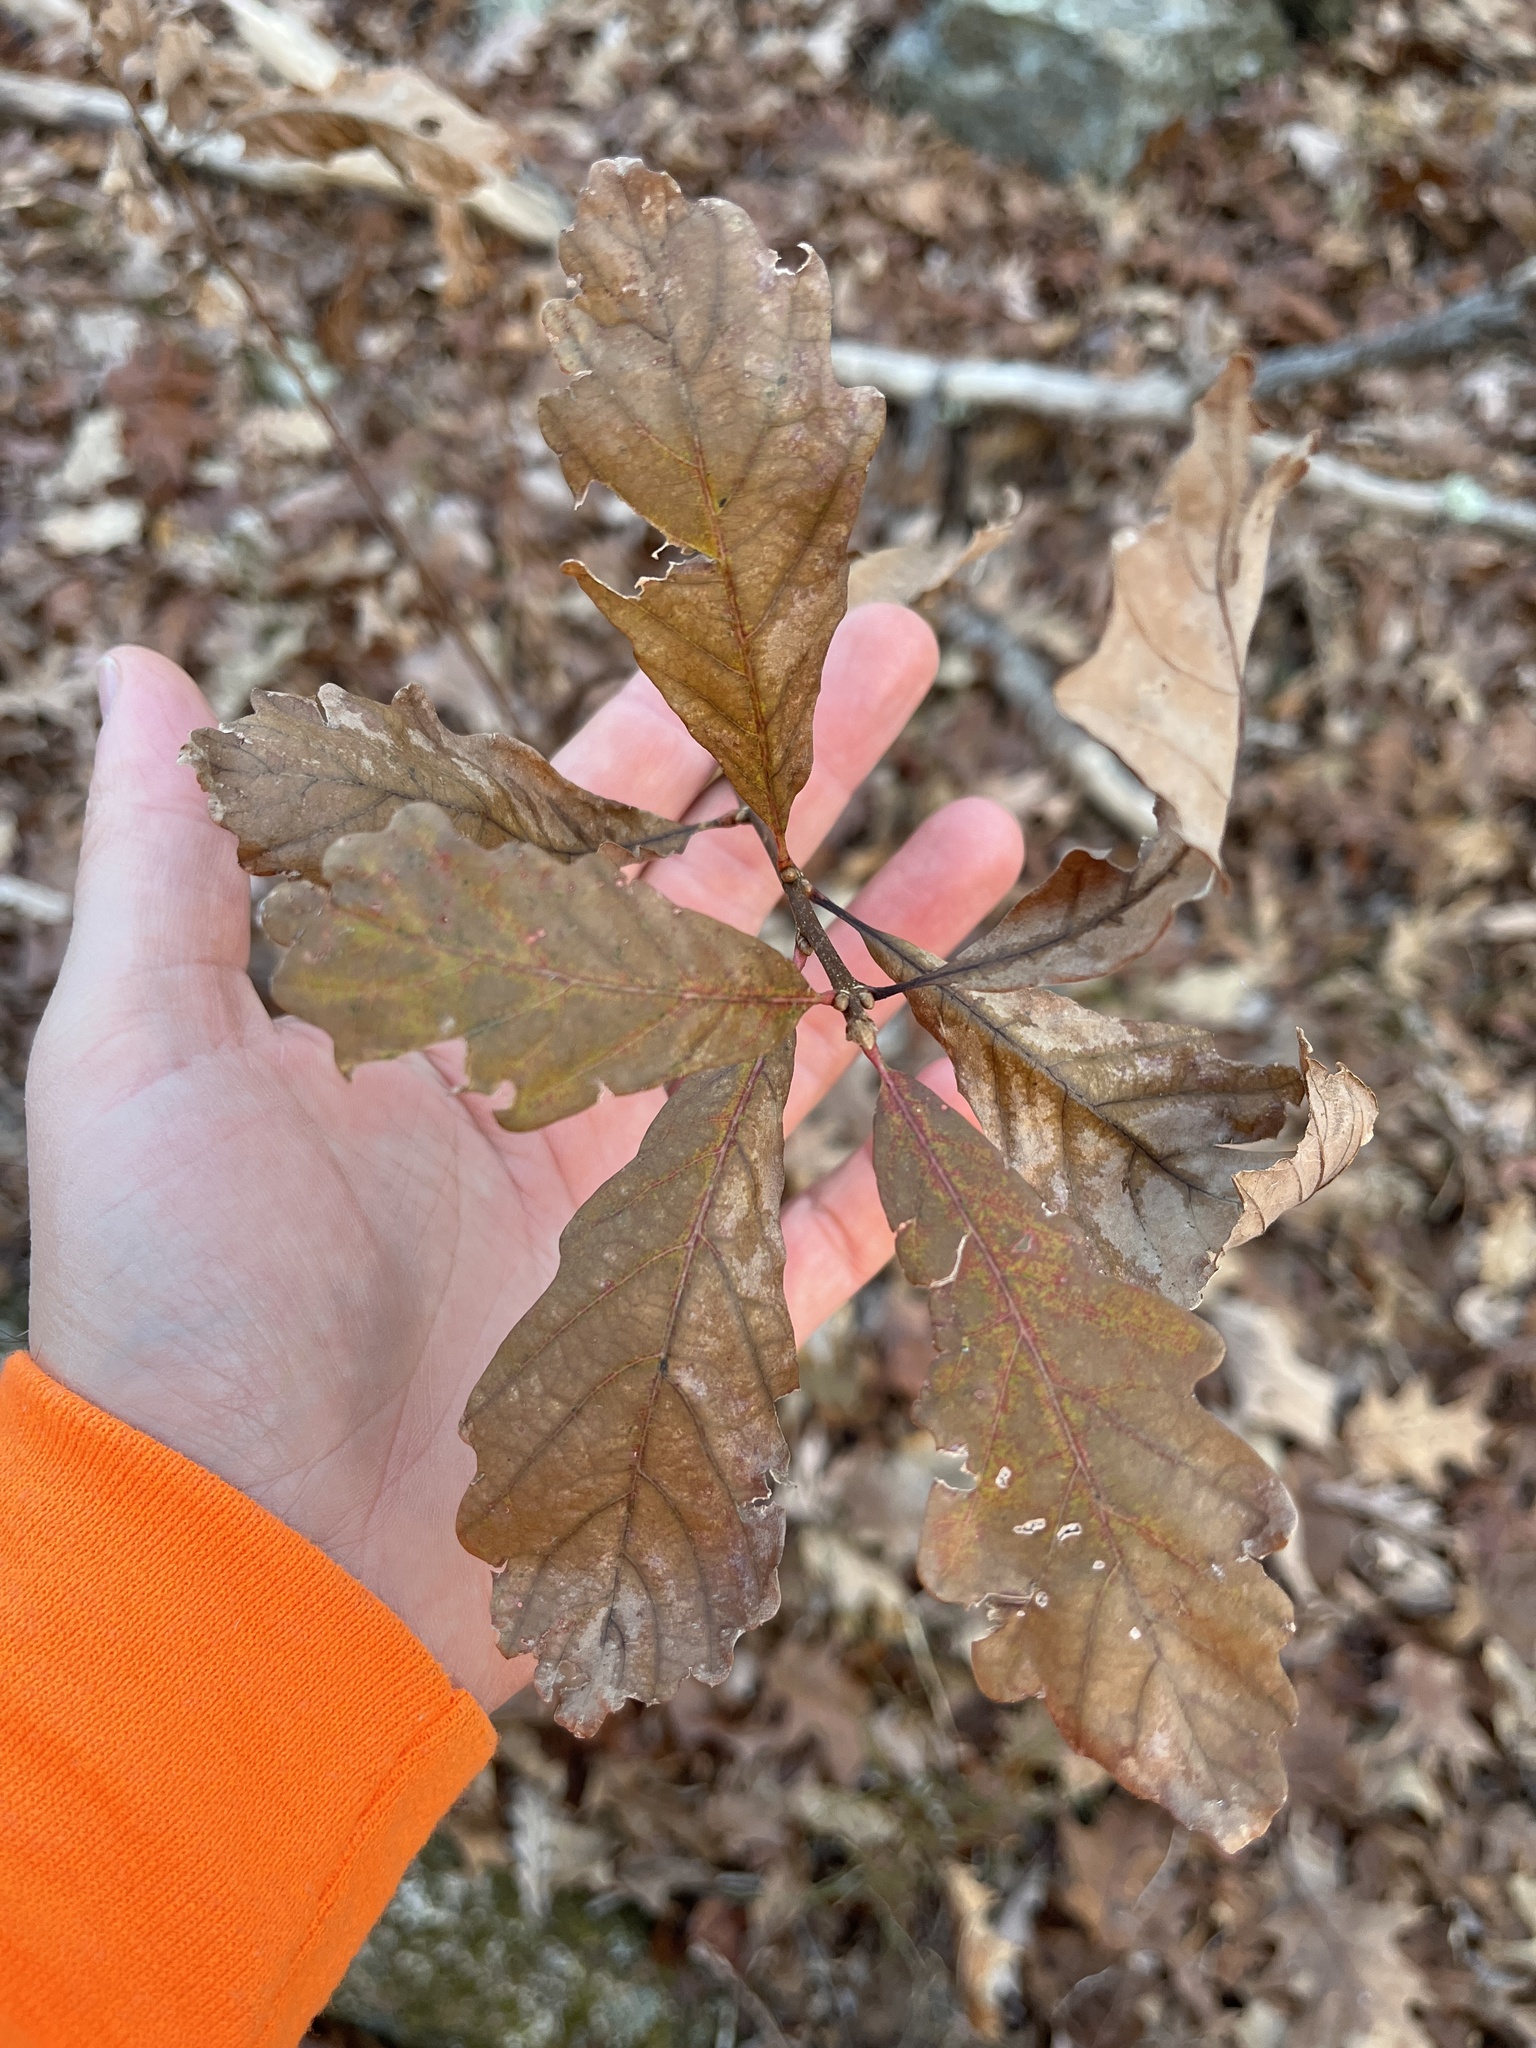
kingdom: Plantae
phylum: Tracheophyta
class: Magnoliopsida
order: Fagales
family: Fagaceae
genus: Quercus
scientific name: Quercus montana
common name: Chestnut oak
